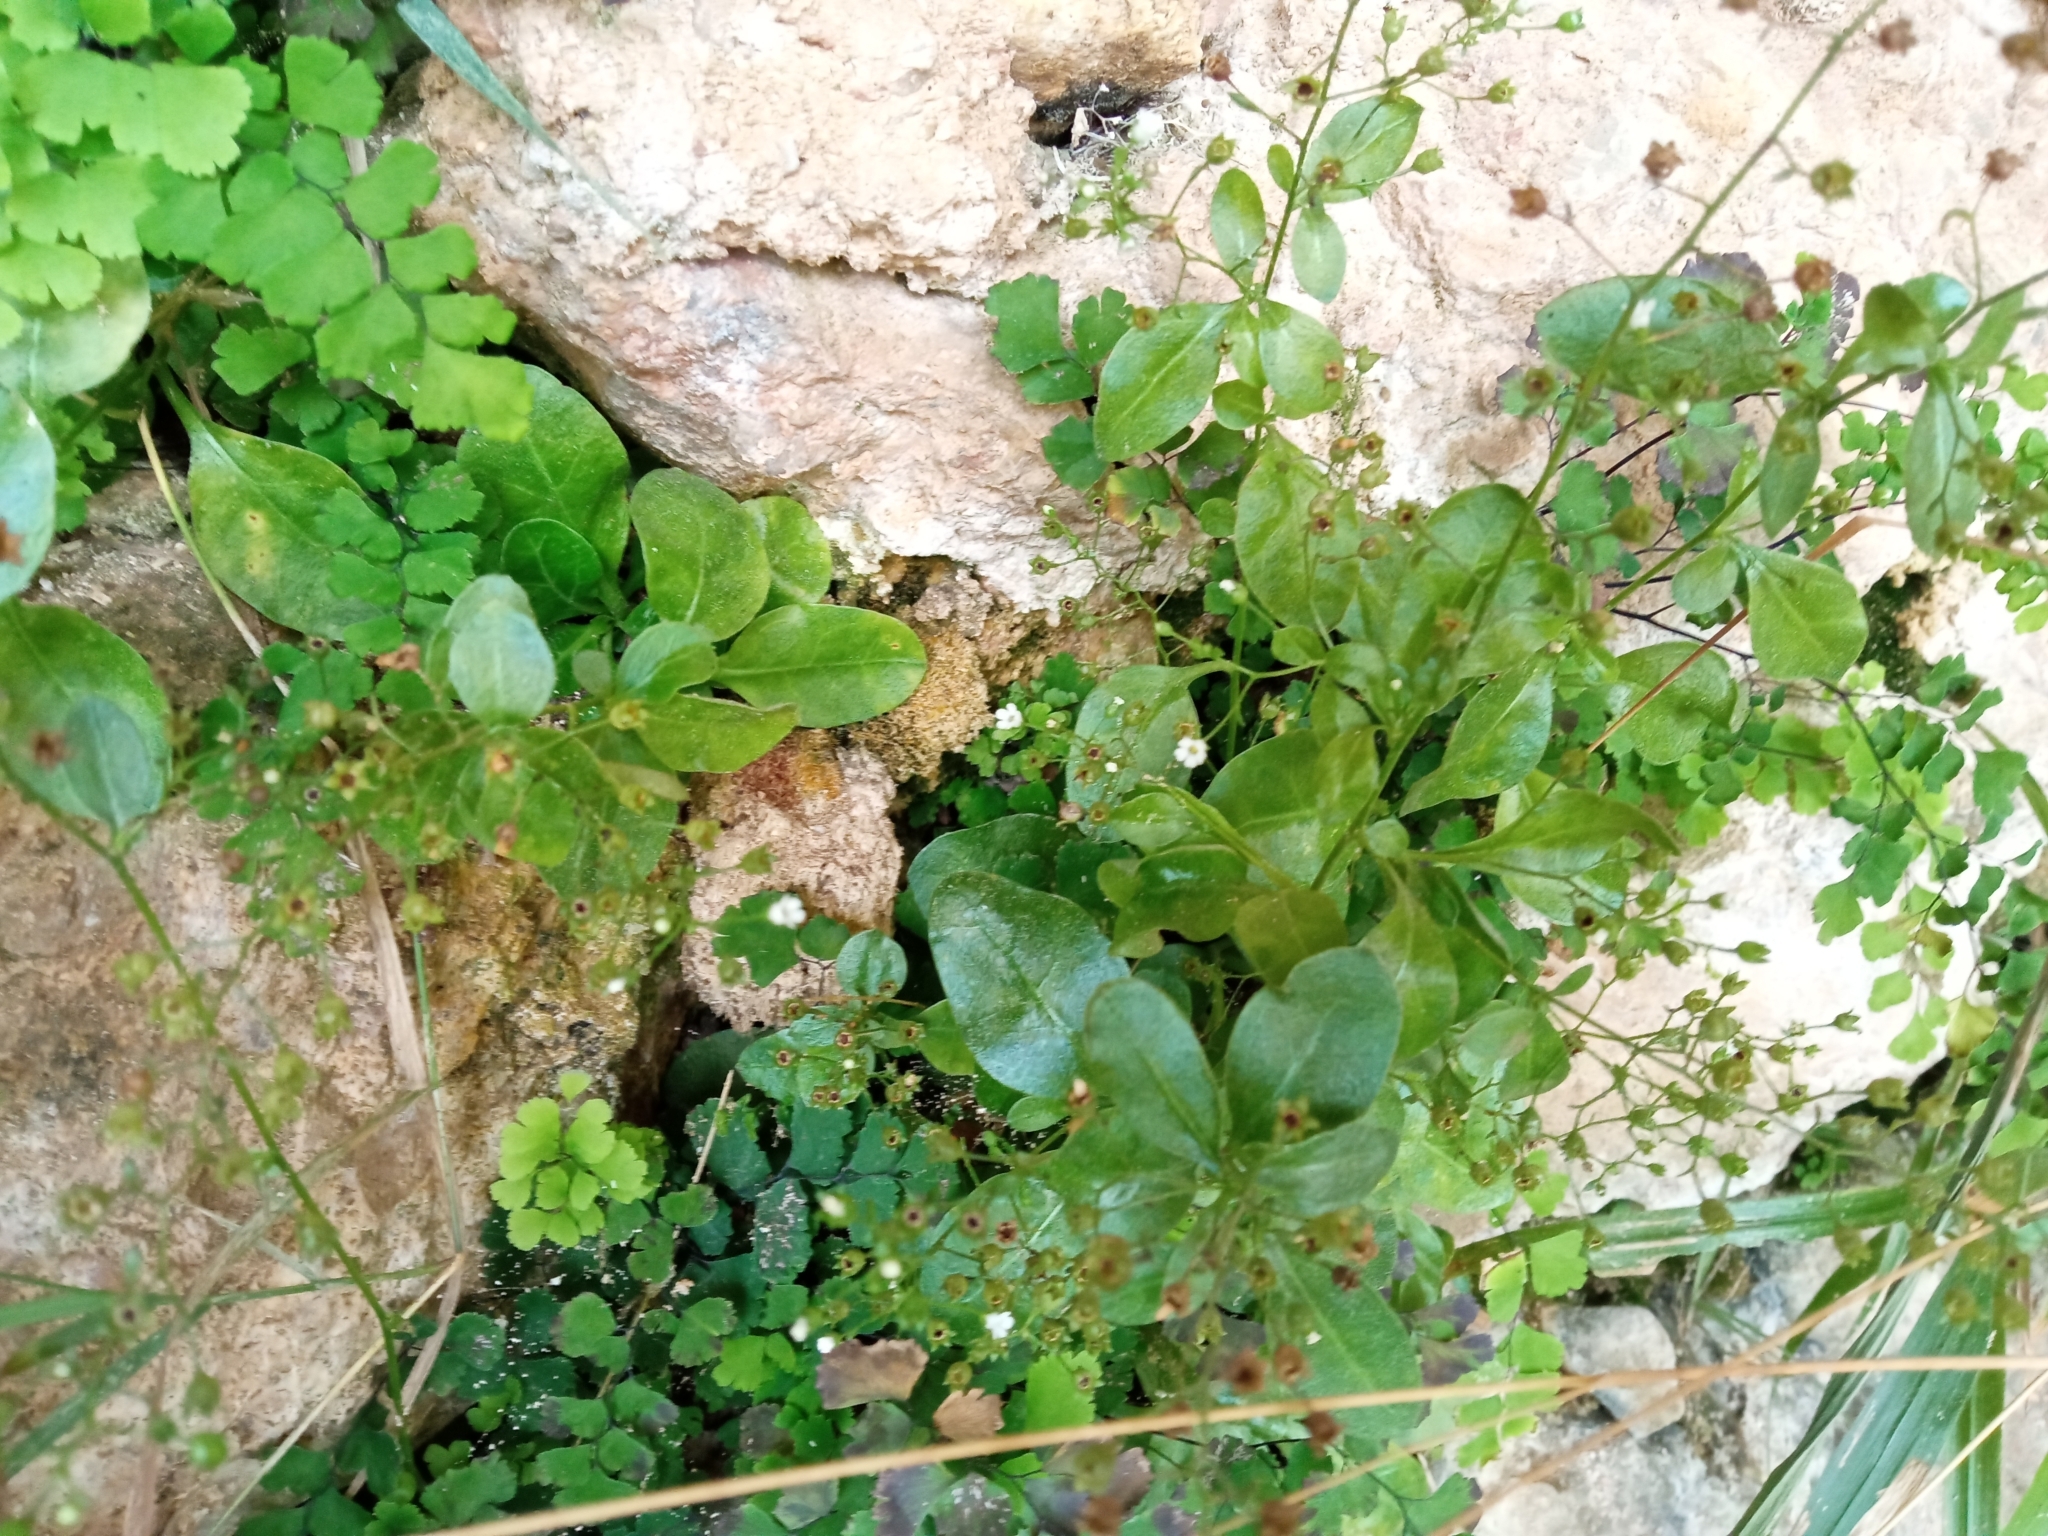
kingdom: Plantae
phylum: Tracheophyta
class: Magnoliopsida
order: Ericales
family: Primulaceae
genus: Samolus
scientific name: Samolus valerandi
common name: Brookweed
